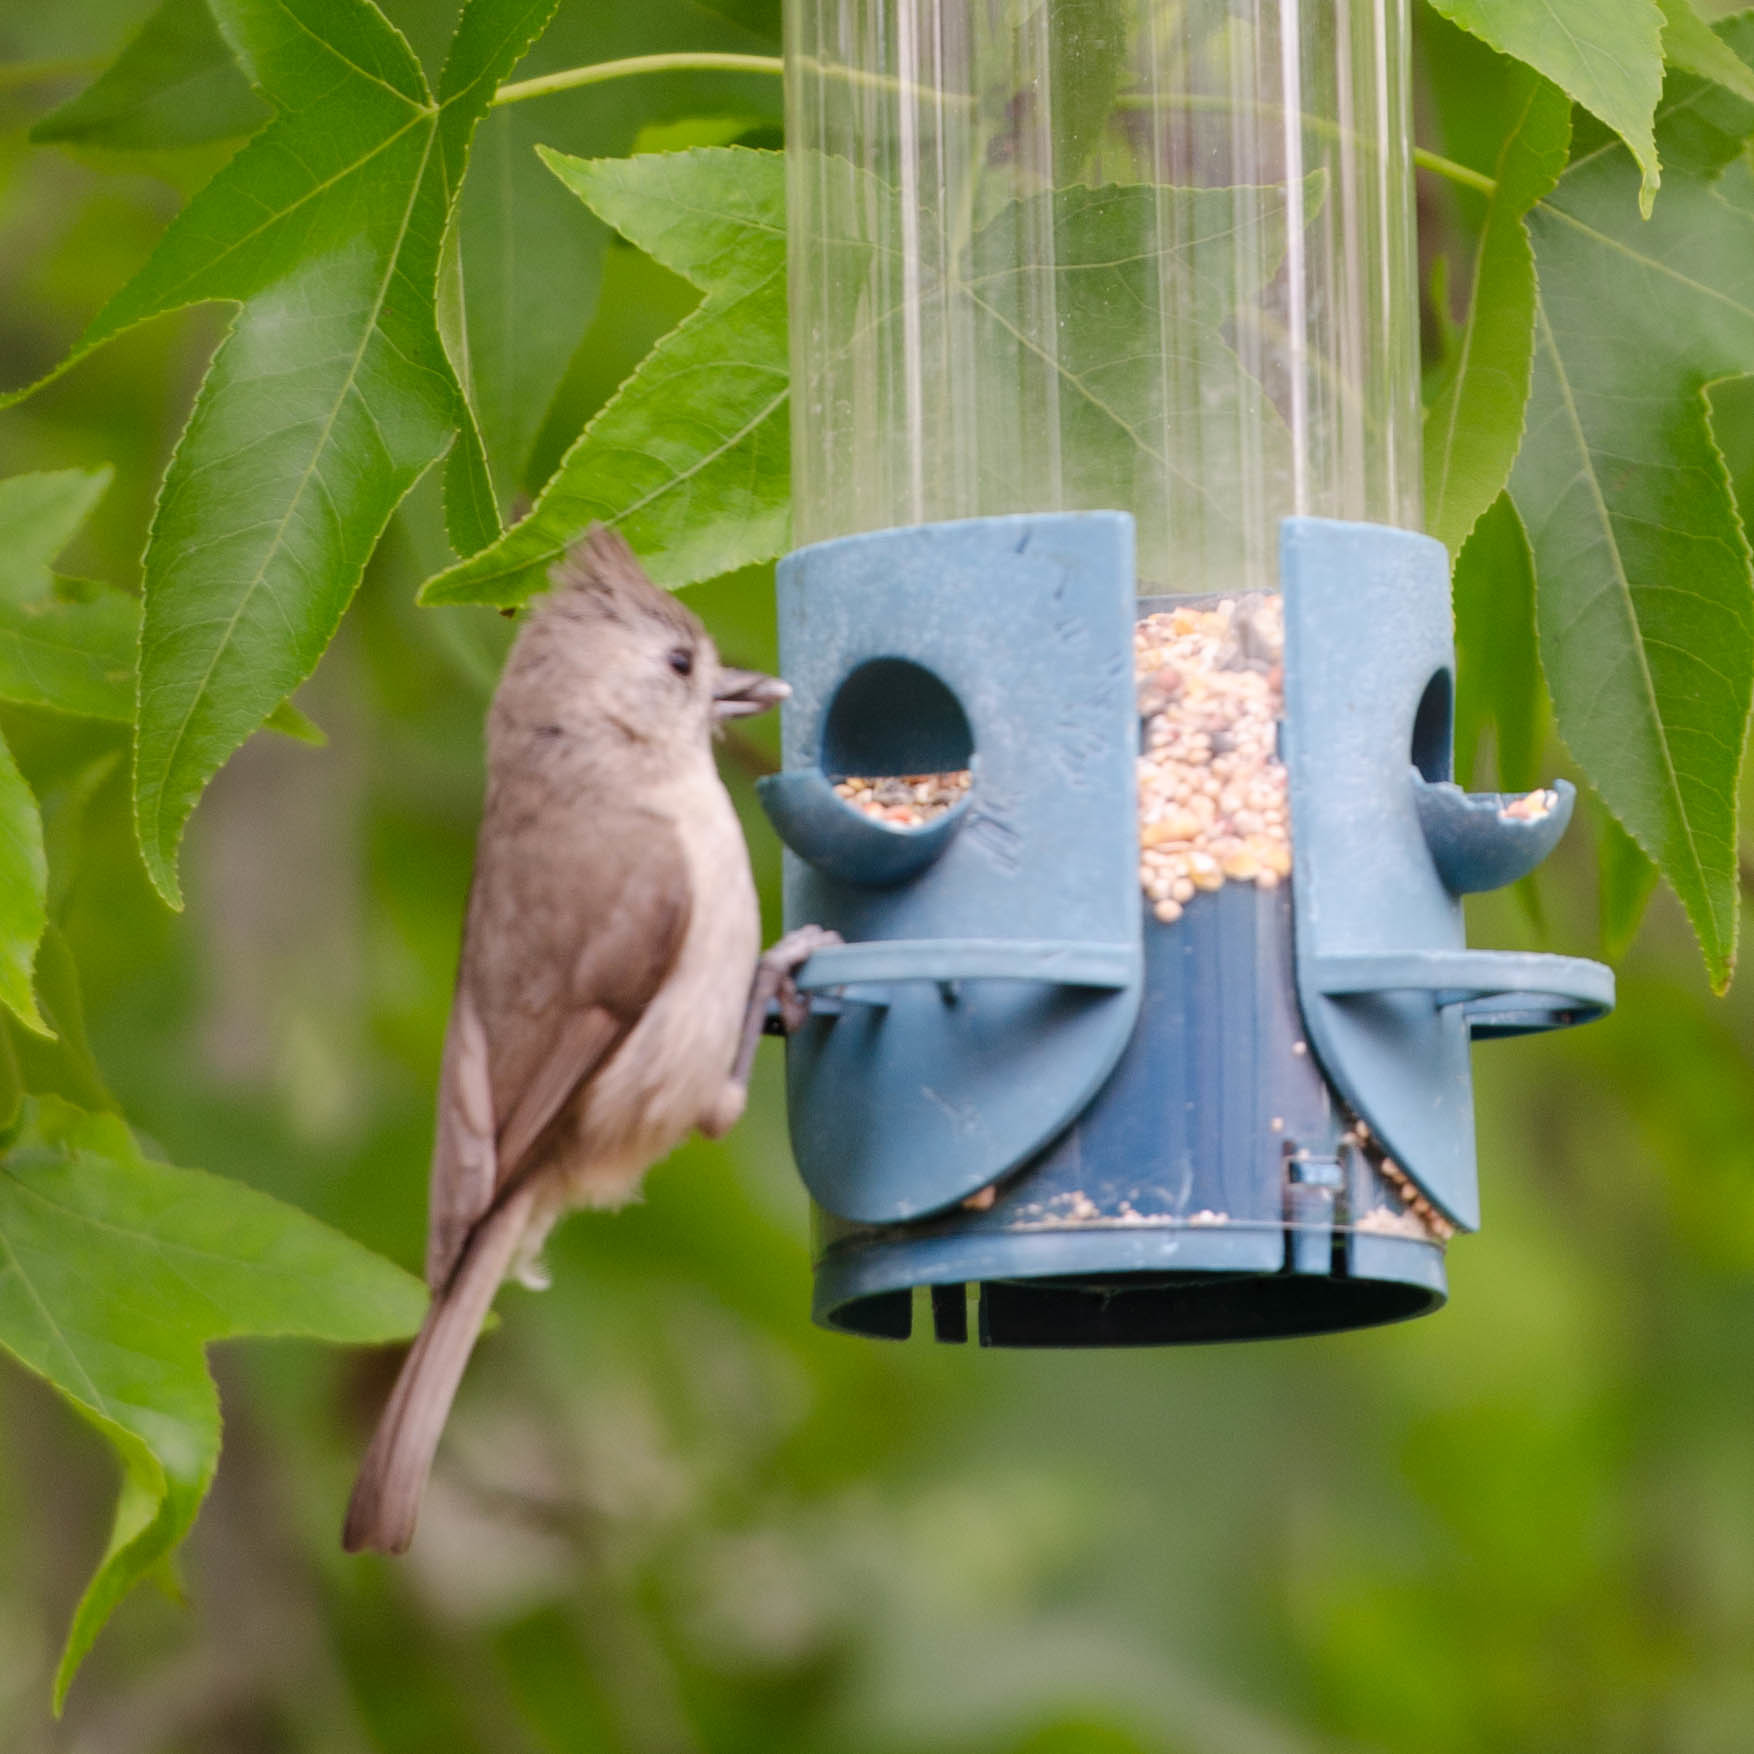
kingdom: Animalia
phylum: Chordata
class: Aves
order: Passeriformes
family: Paridae
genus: Baeolophus
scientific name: Baeolophus inornatus
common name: Oak titmouse
